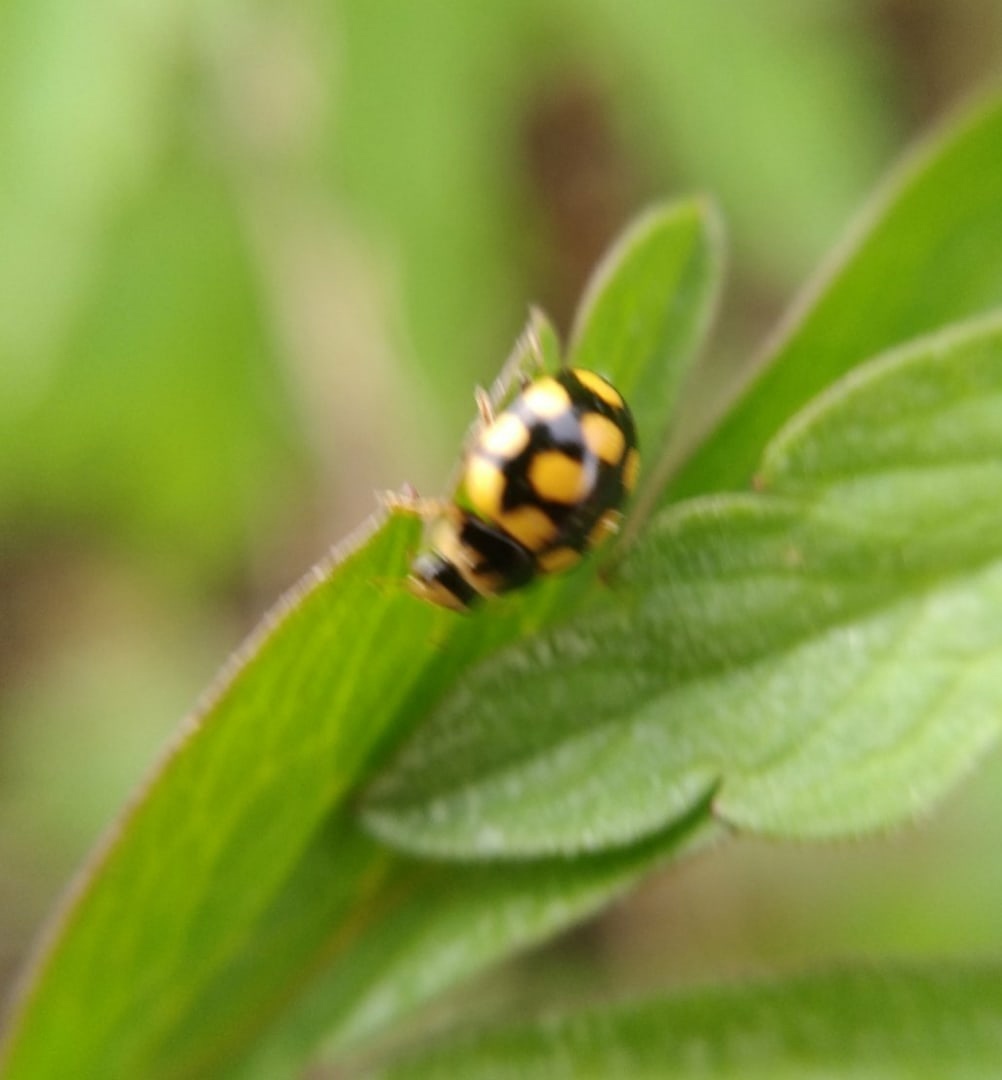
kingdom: Animalia
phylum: Arthropoda
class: Insecta
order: Coleoptera
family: Coccinellidae
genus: Coccinula
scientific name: Coccinula quatuordecimpustulata
